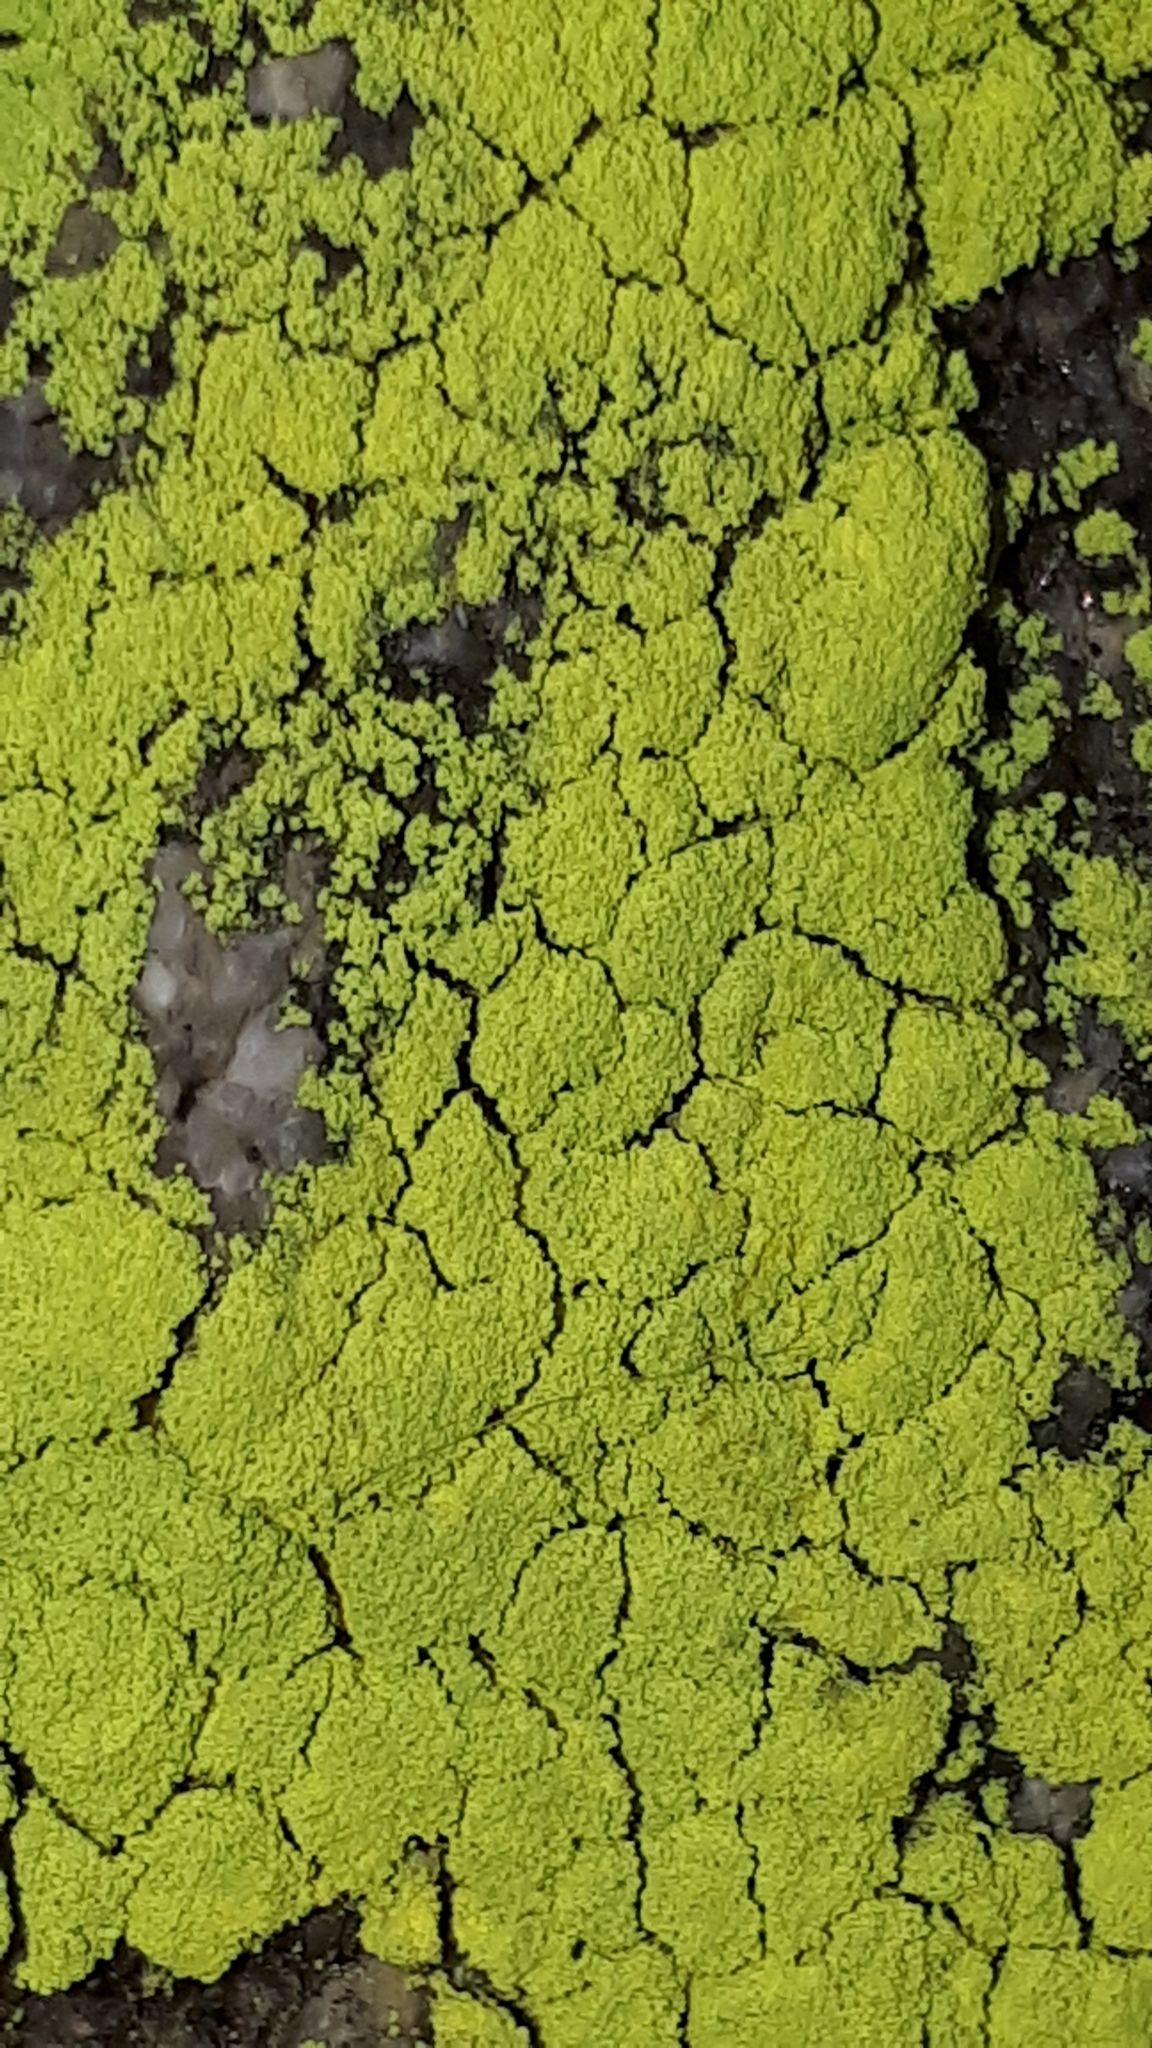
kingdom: Fungi
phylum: Ascomycota
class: Arthoniomycetes
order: Arthoniales
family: Chrysotrichaceae
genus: Chrysothrix
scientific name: Chrysothrix chlorina
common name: Chlorine dust lichen
